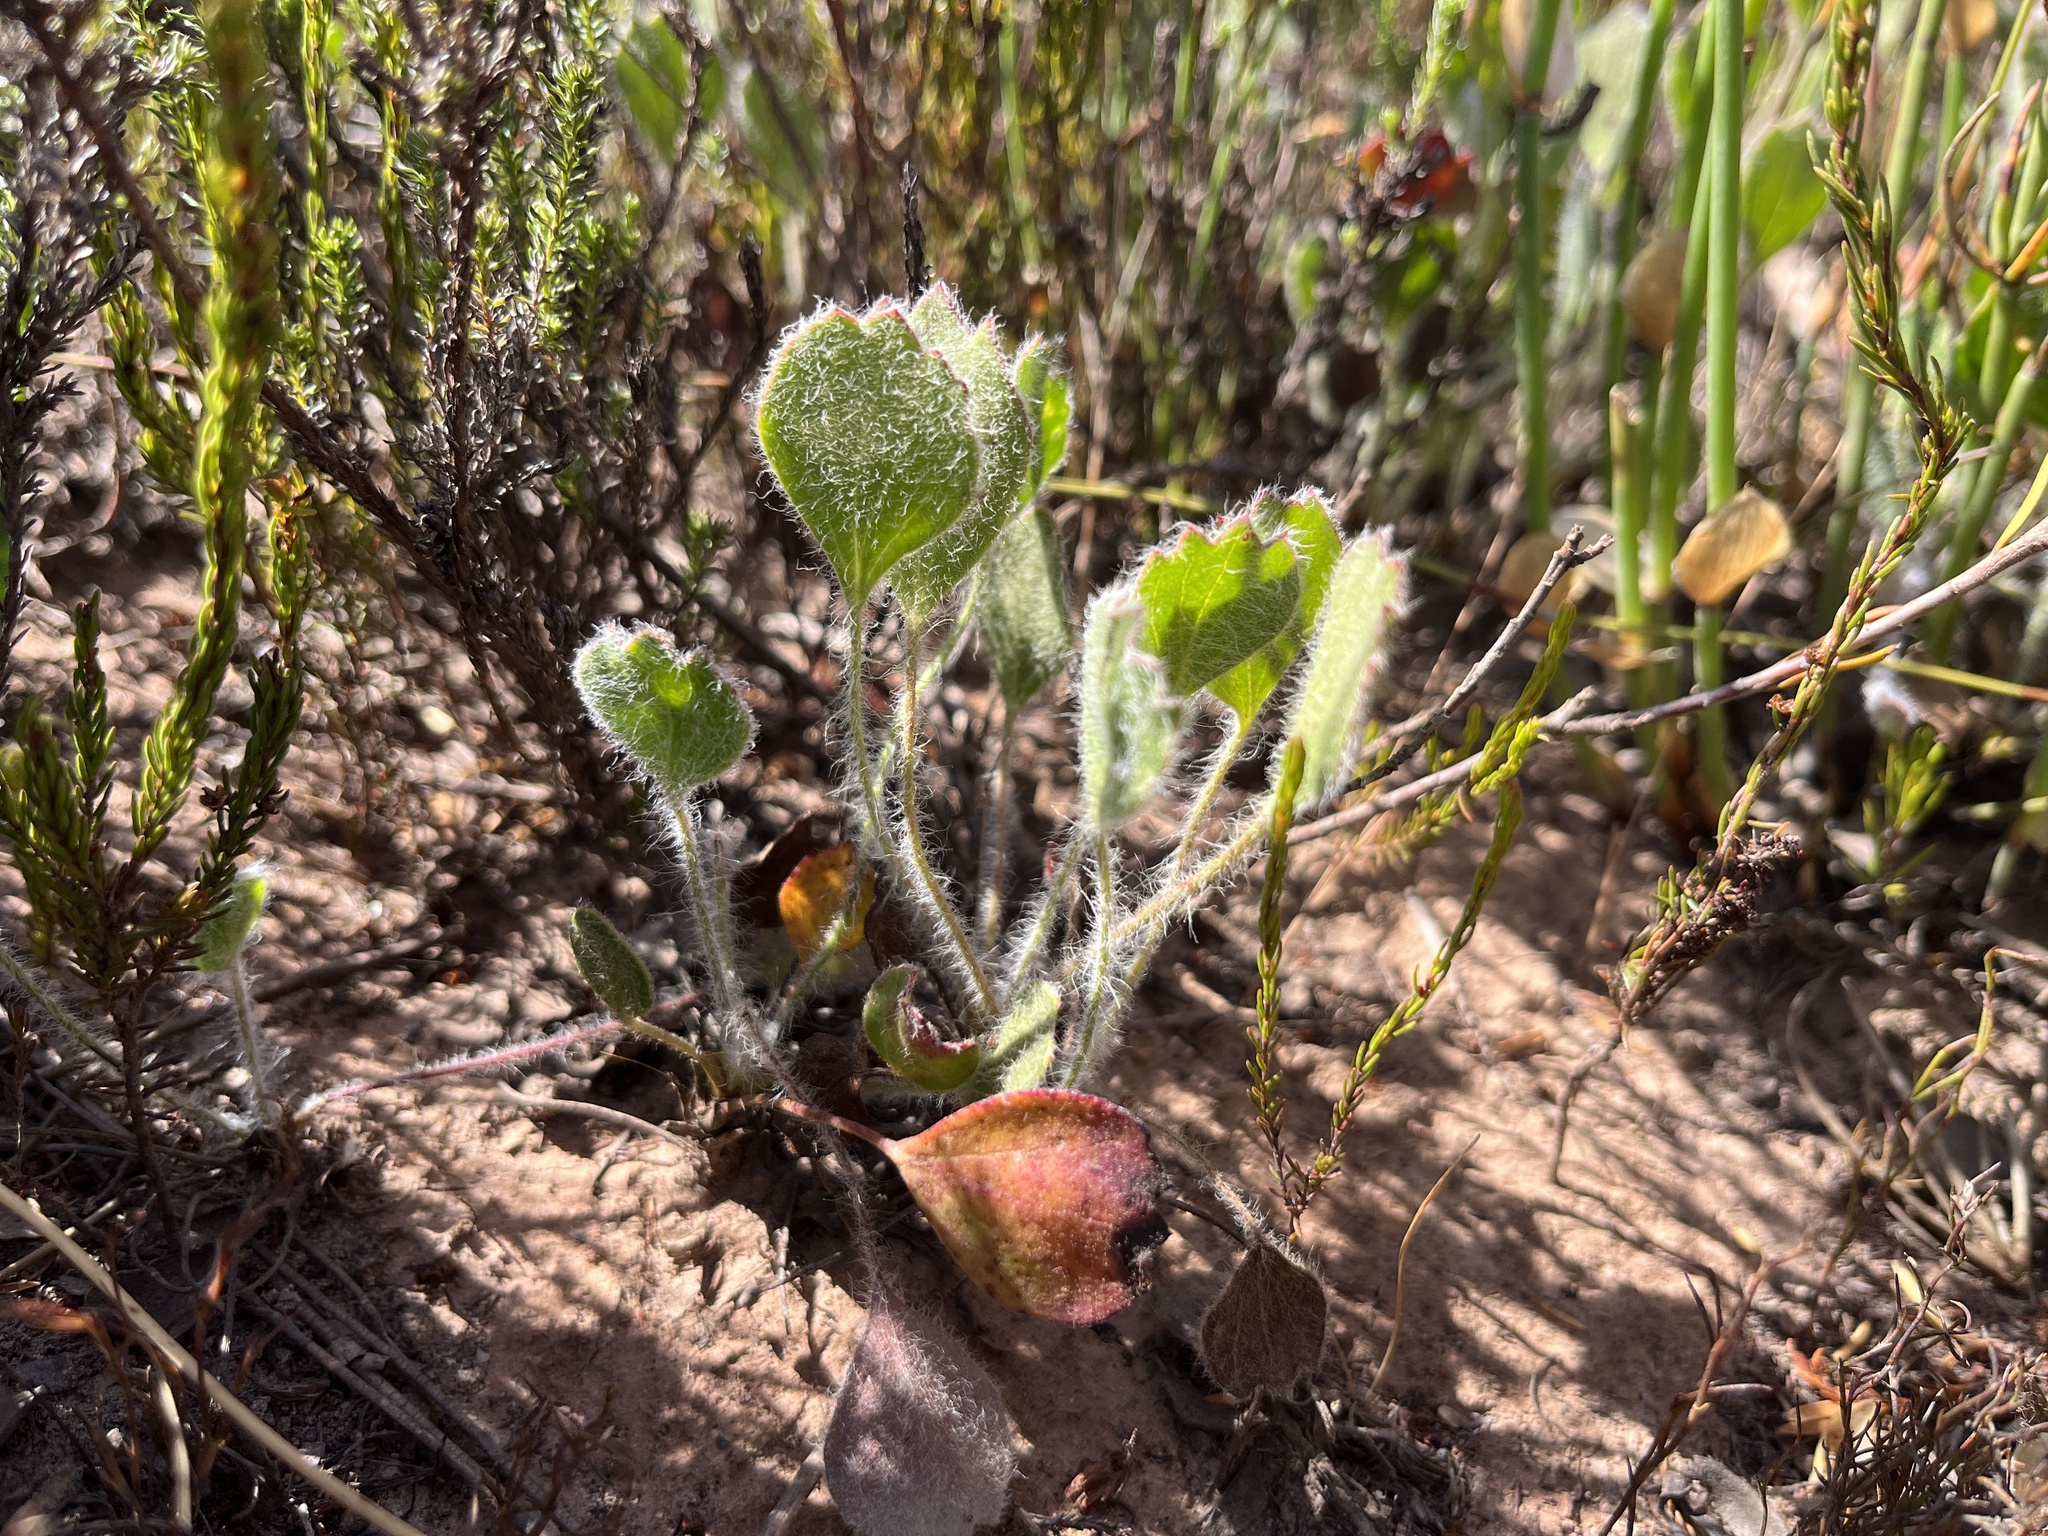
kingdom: Plantae
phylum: Tracheophyta
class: Magnoliopsida
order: Apiales
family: Apiaceae
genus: Centella
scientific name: Centella difformis
